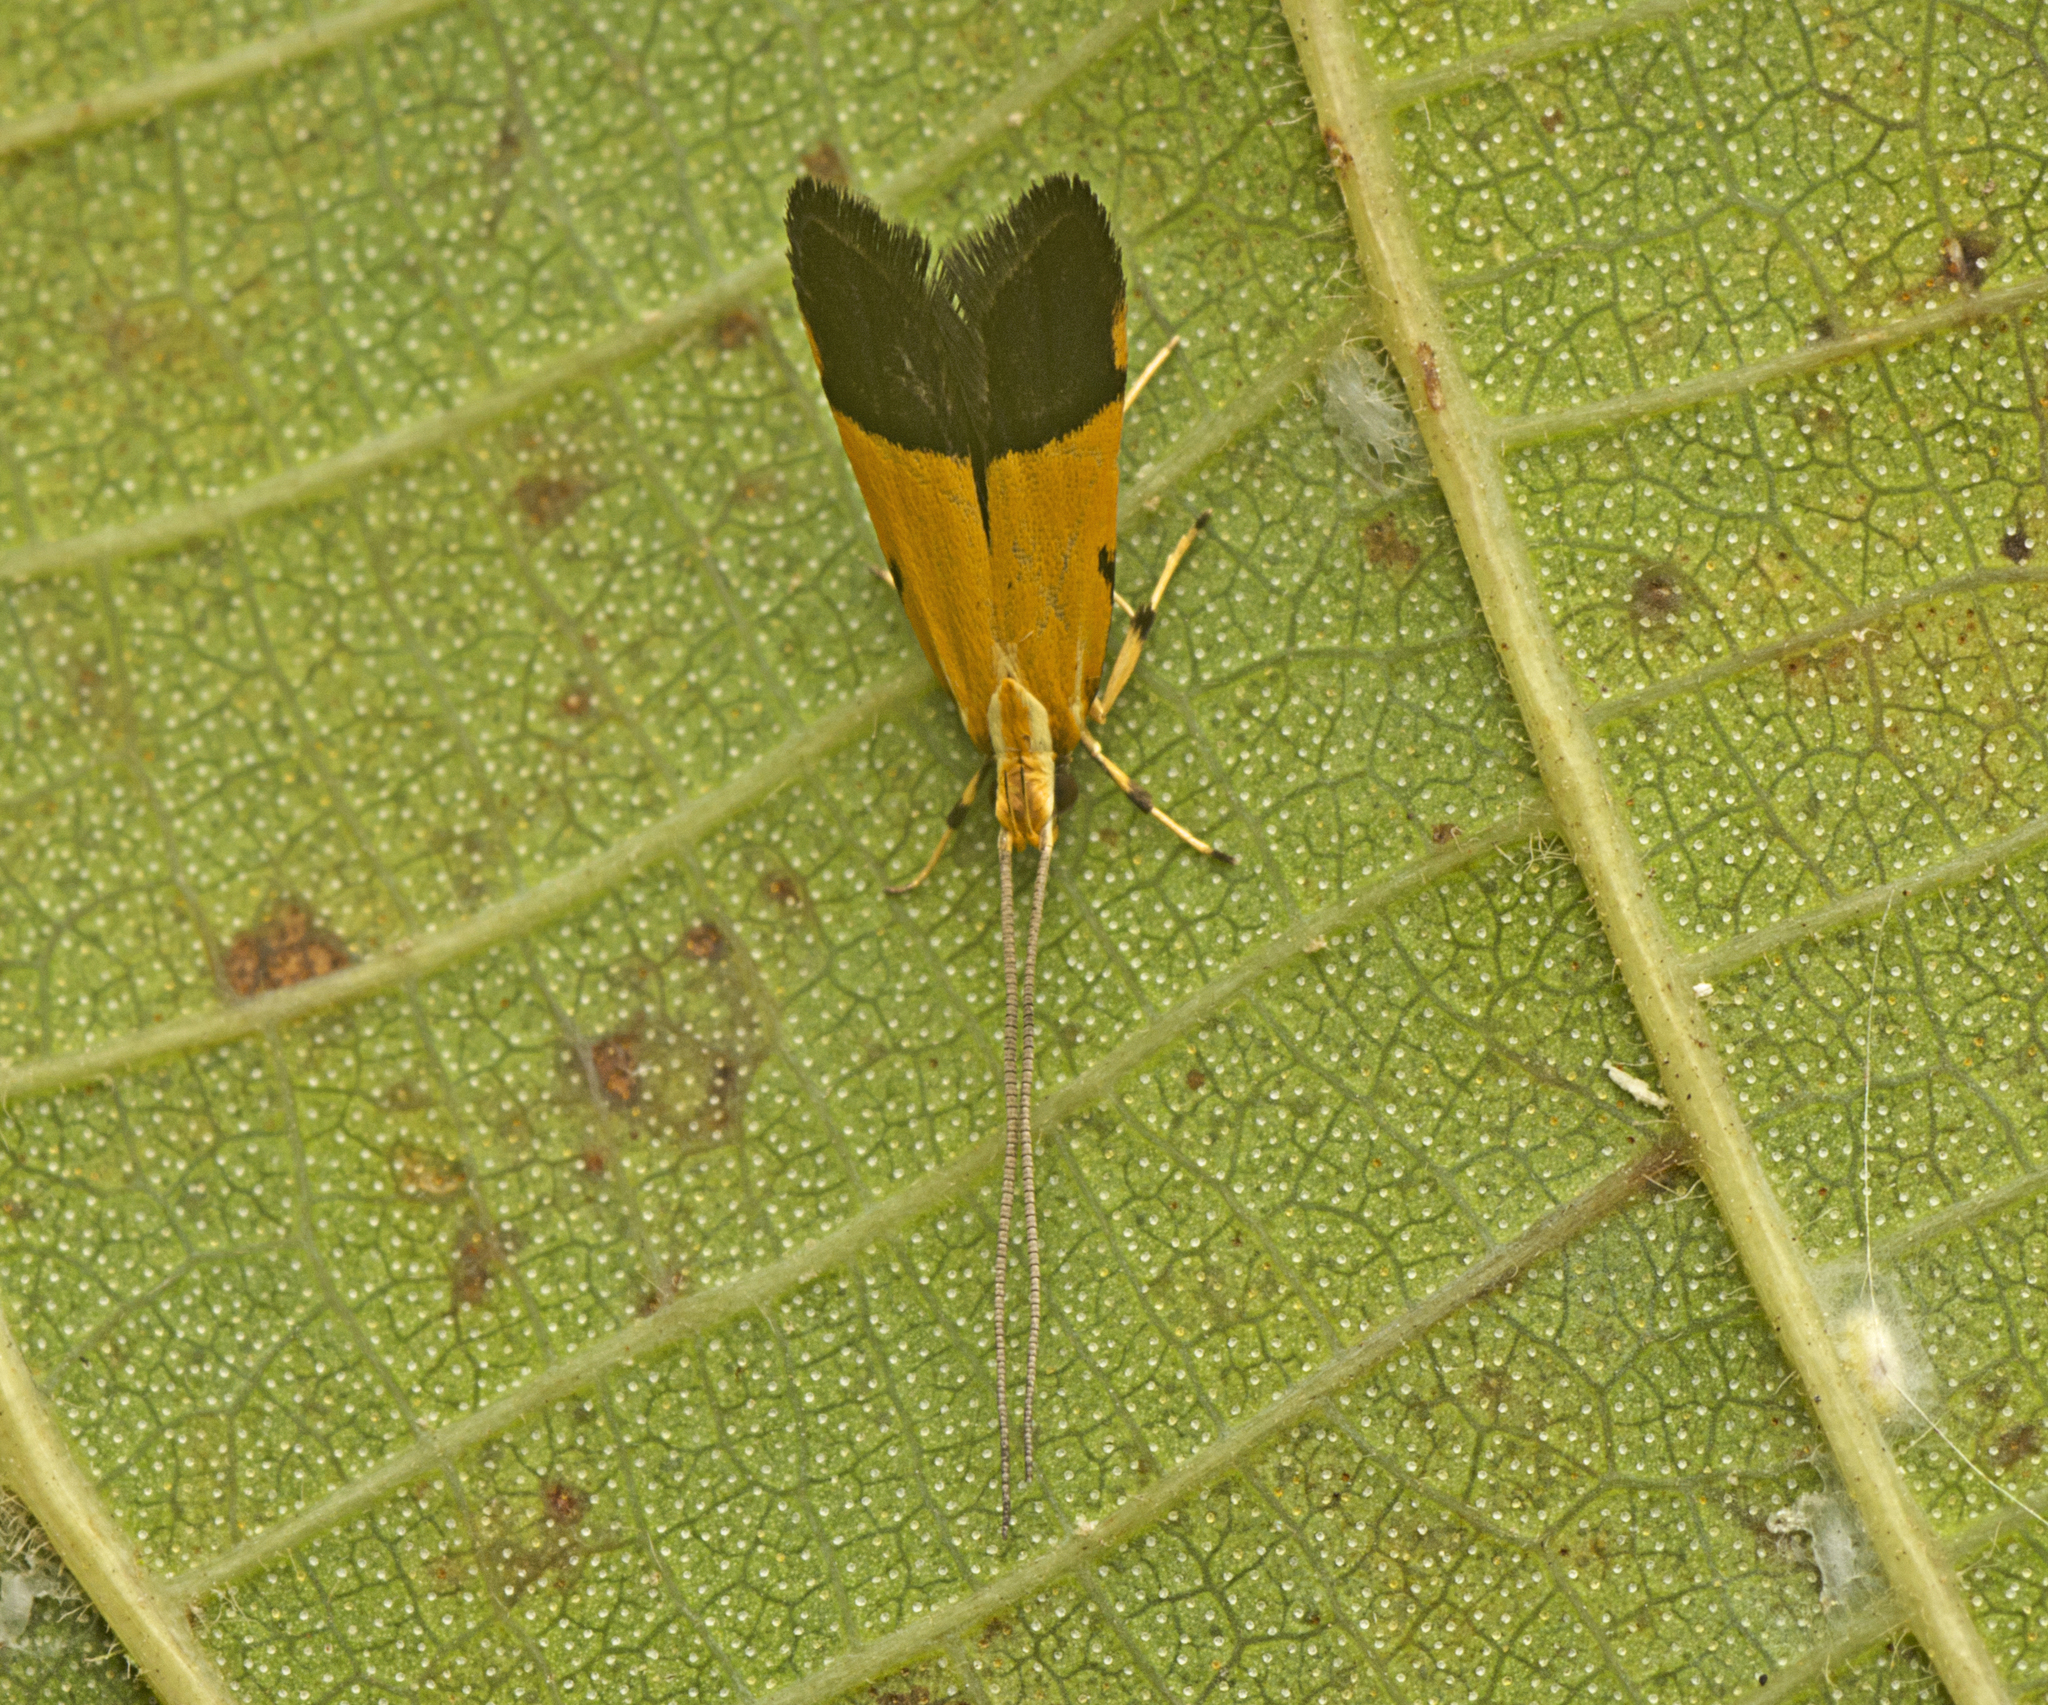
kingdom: Animalia
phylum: Arthropoda
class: Insecta
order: Lepidoptera
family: Lecithoceridae
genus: Crocanthes
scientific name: Crocanthes micradelpha
